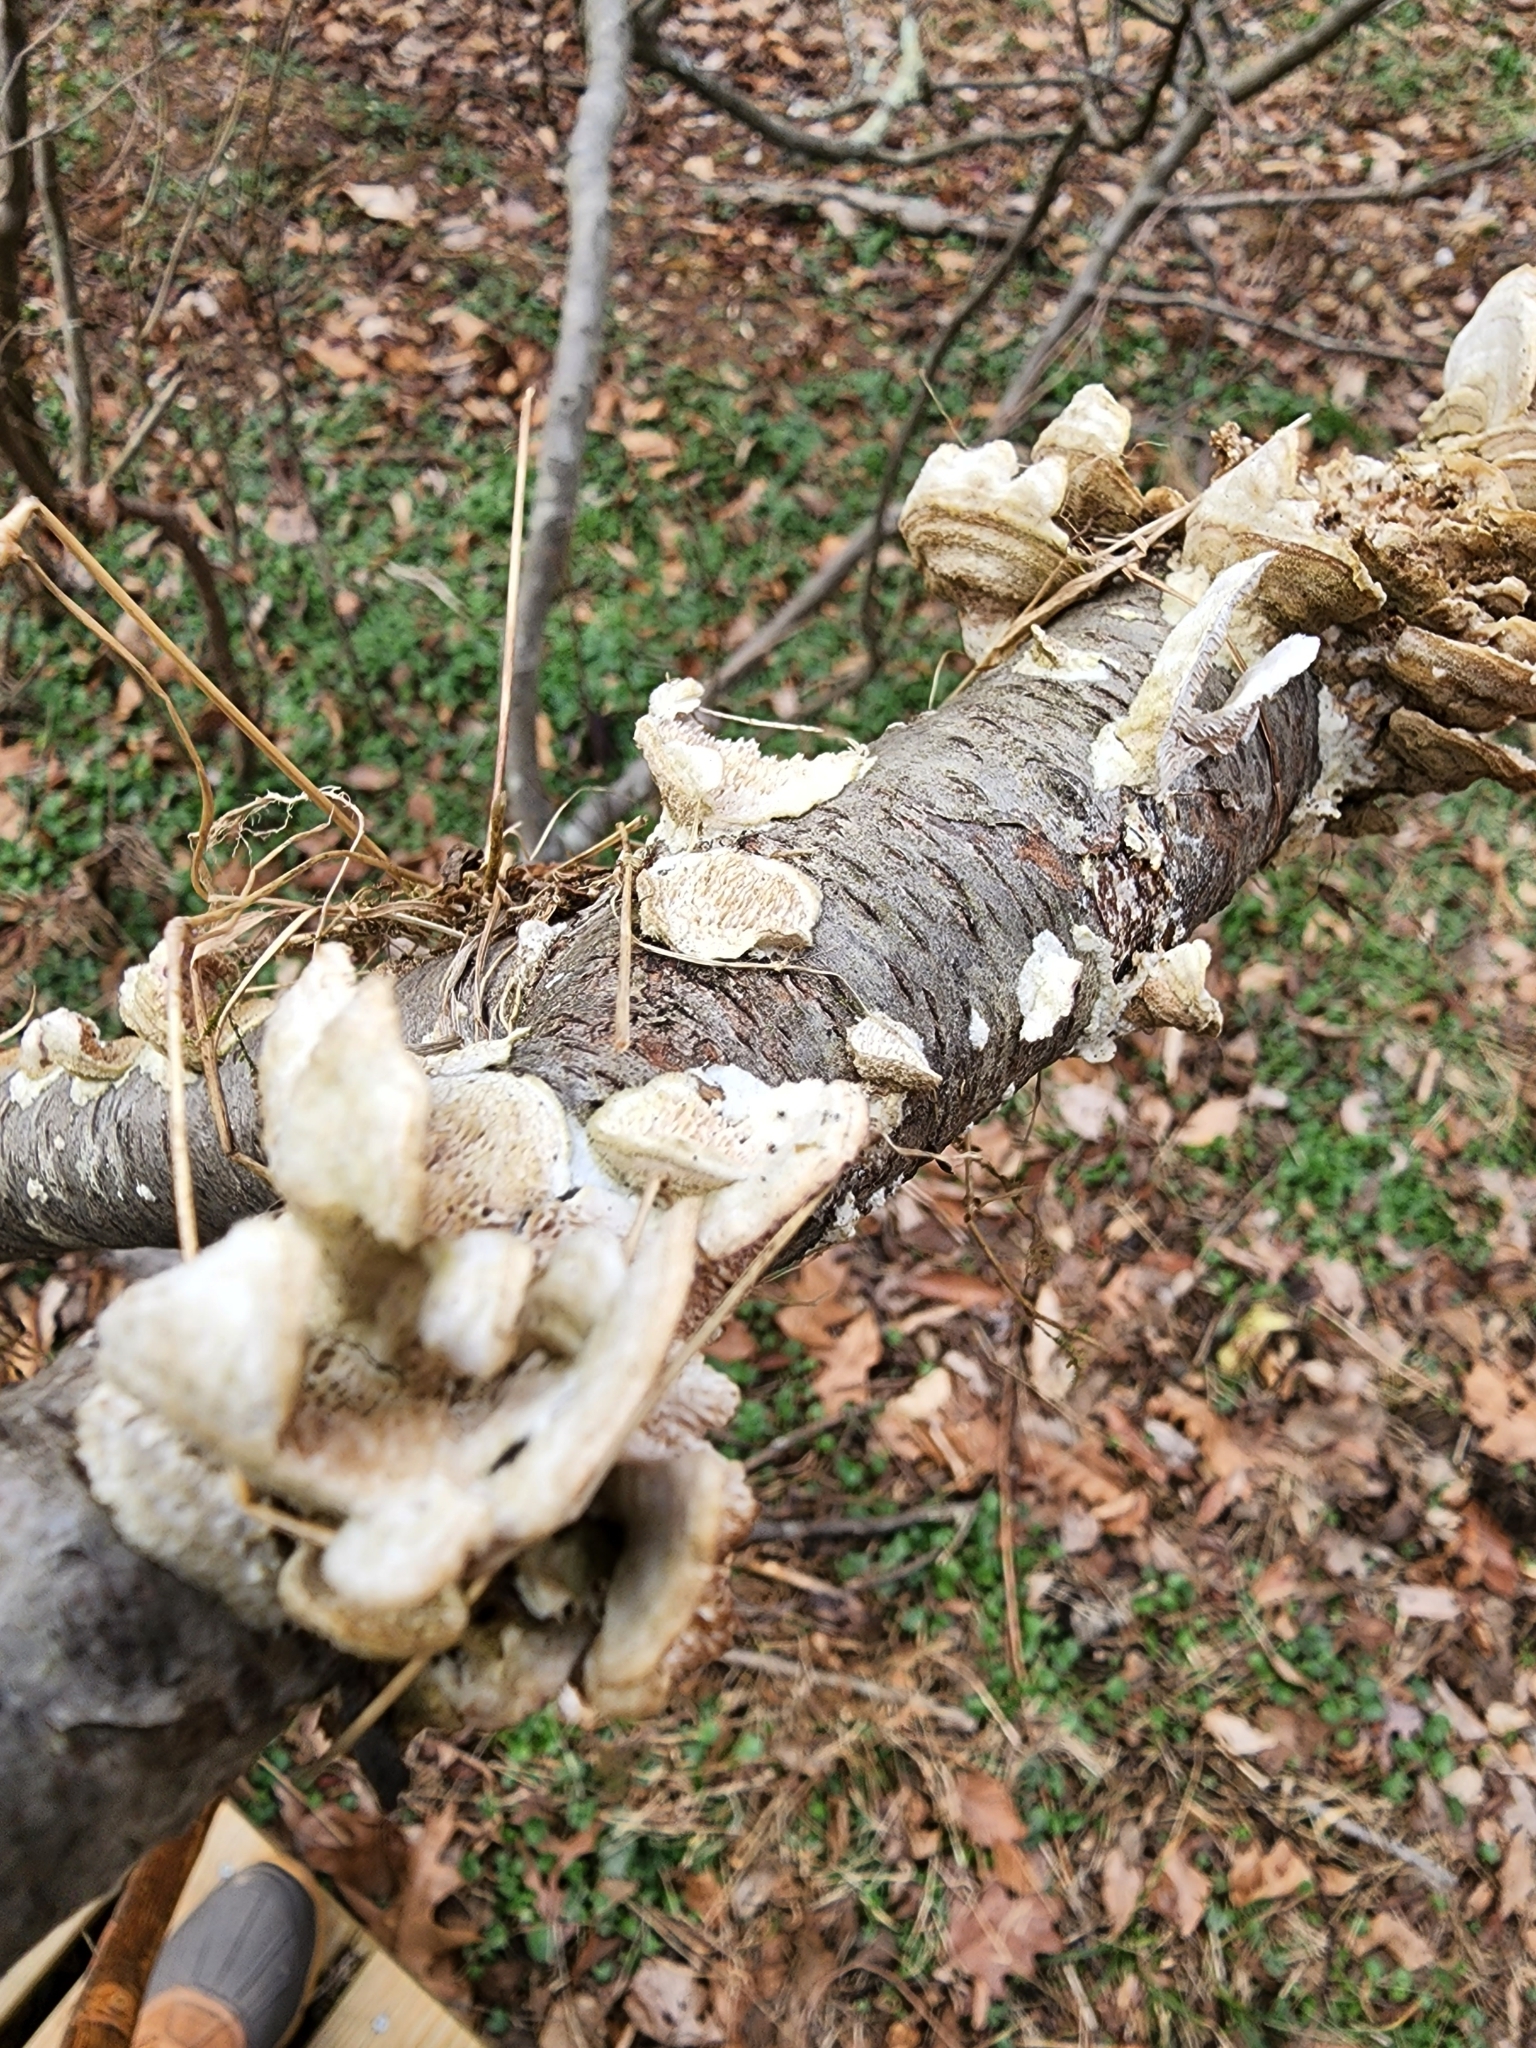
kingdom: Fungi
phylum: Basidiomycota
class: Agaricomycetes
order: Hymenochaetales
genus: Trichaptum
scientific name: Trichaptum biforme
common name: Violet-toothed polypore
